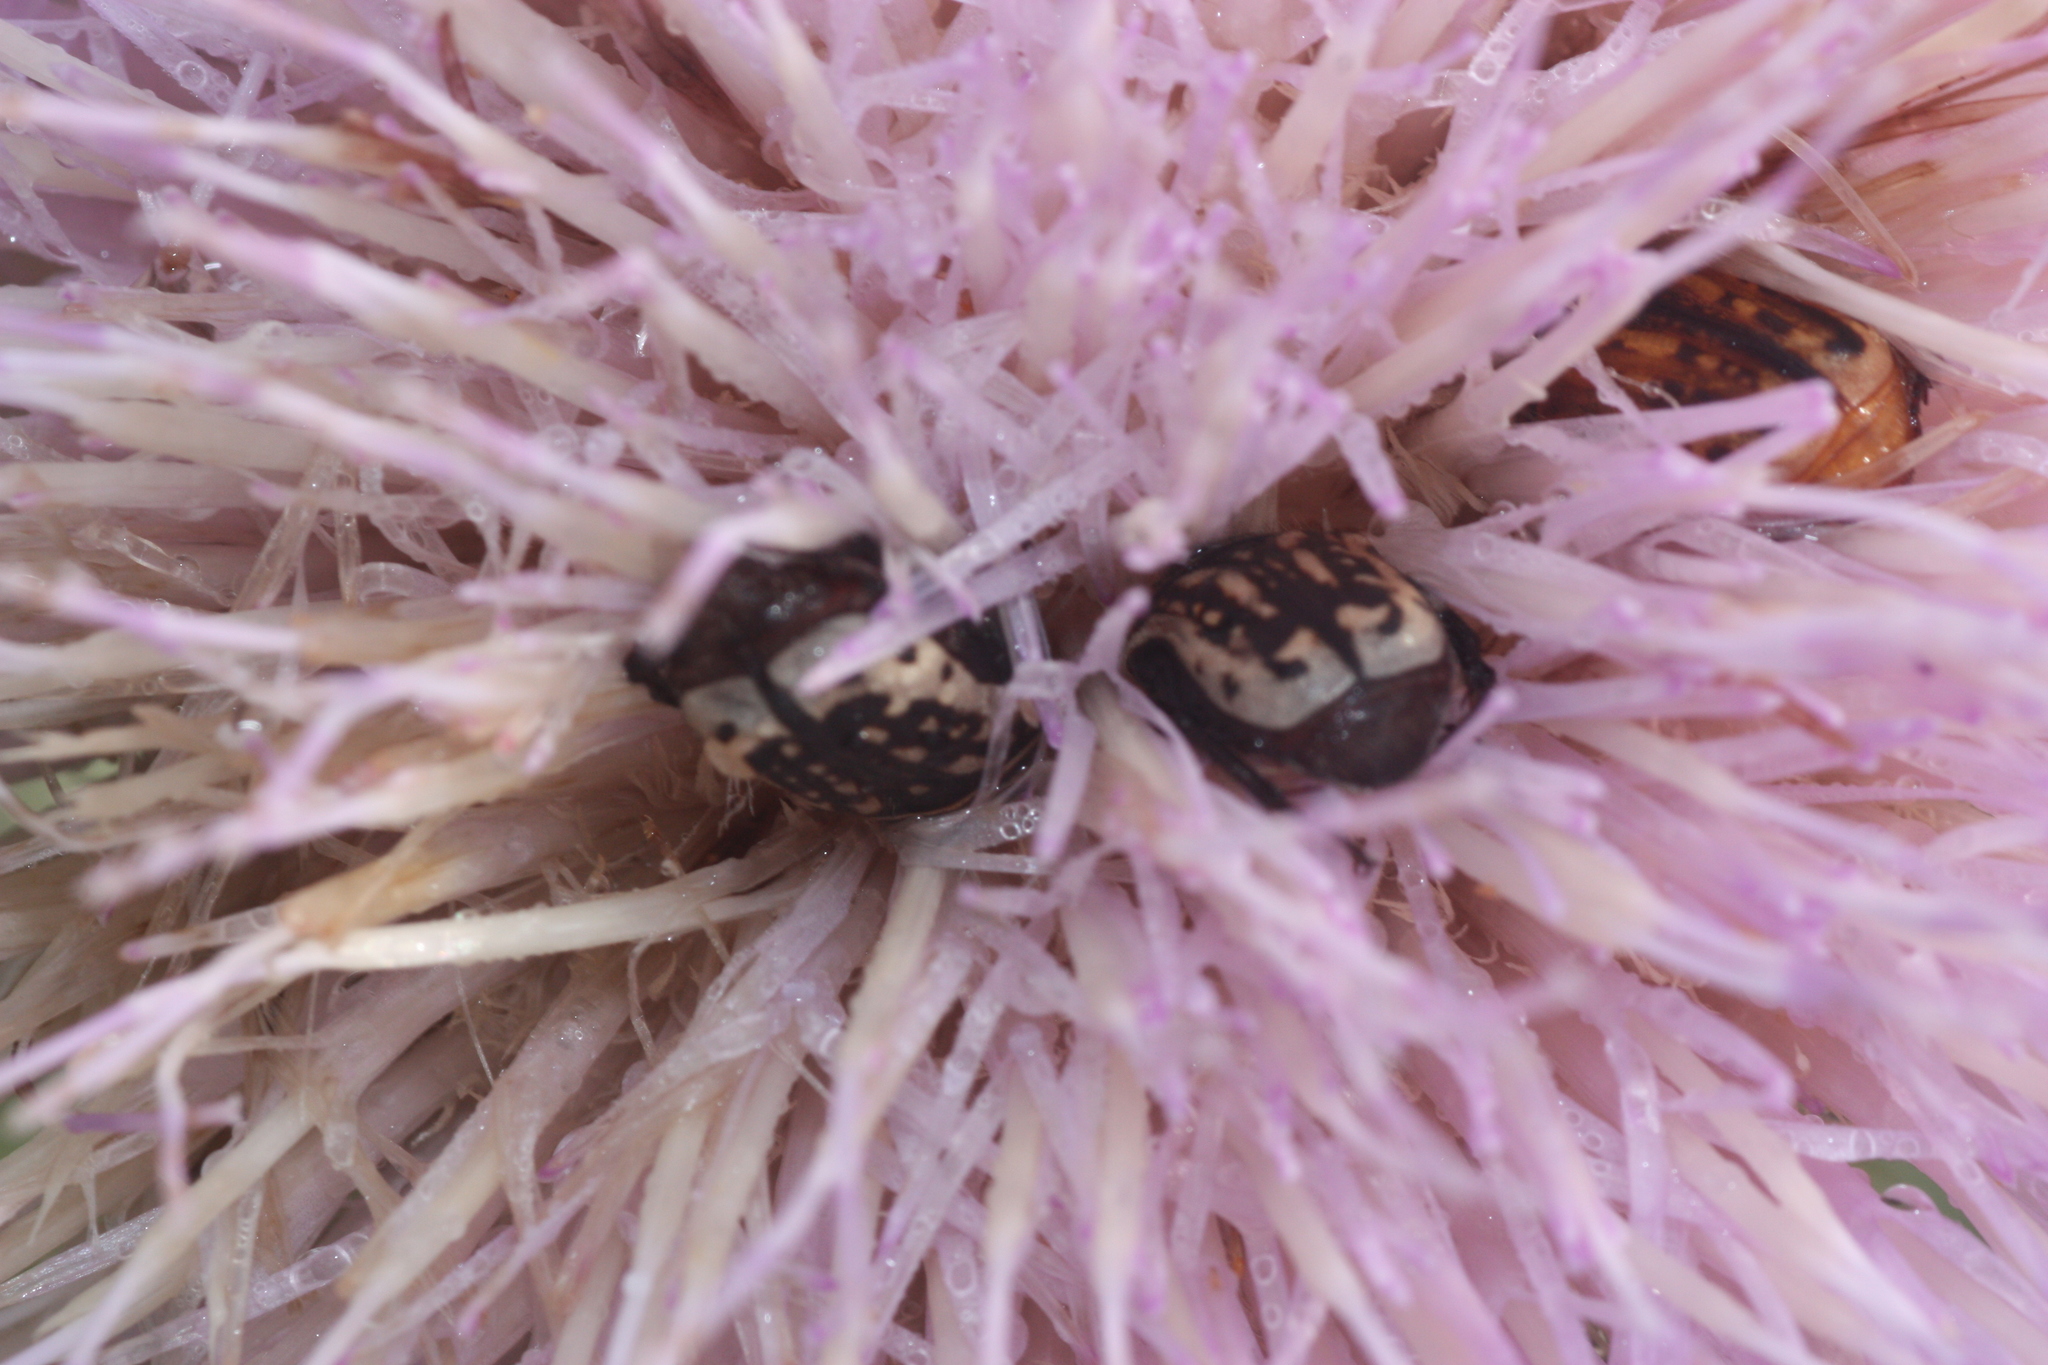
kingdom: Animalia
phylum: Arthropoda
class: Insecta
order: Coleoptera
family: Scarabaeidae
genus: Euphoria
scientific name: Euphoria kernii
